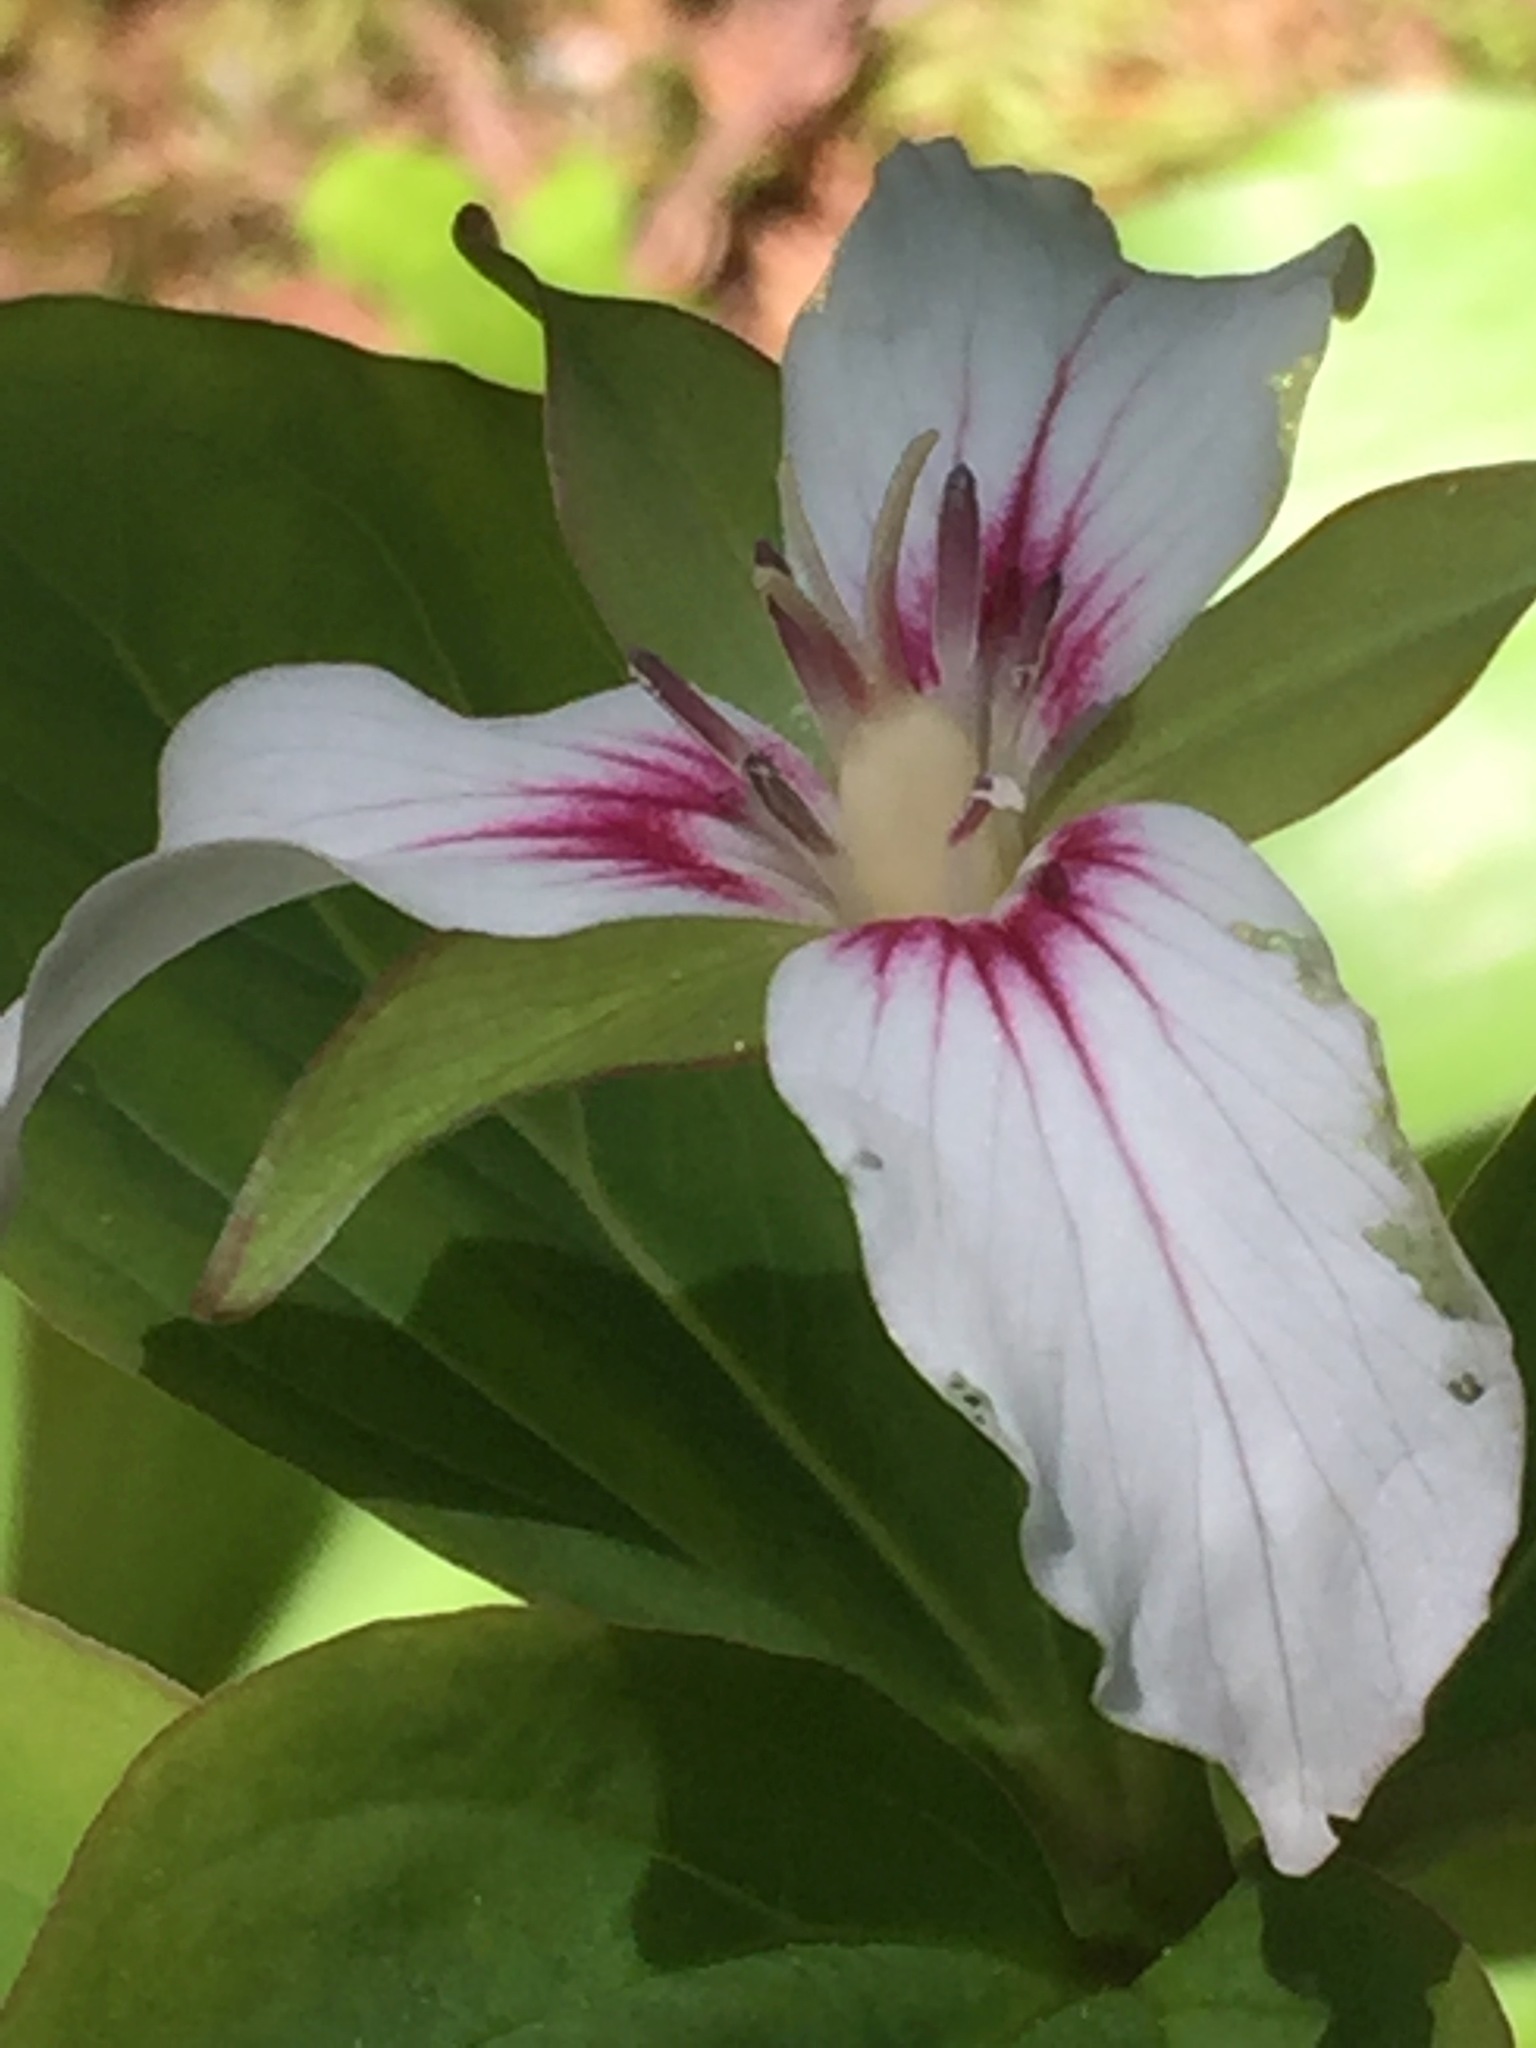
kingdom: Plantae
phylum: Tracheophyta
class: Liliopsida
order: Liliales
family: Melanthiaceae
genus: Trillium
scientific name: Trillium undulatum
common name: Paint trillium
